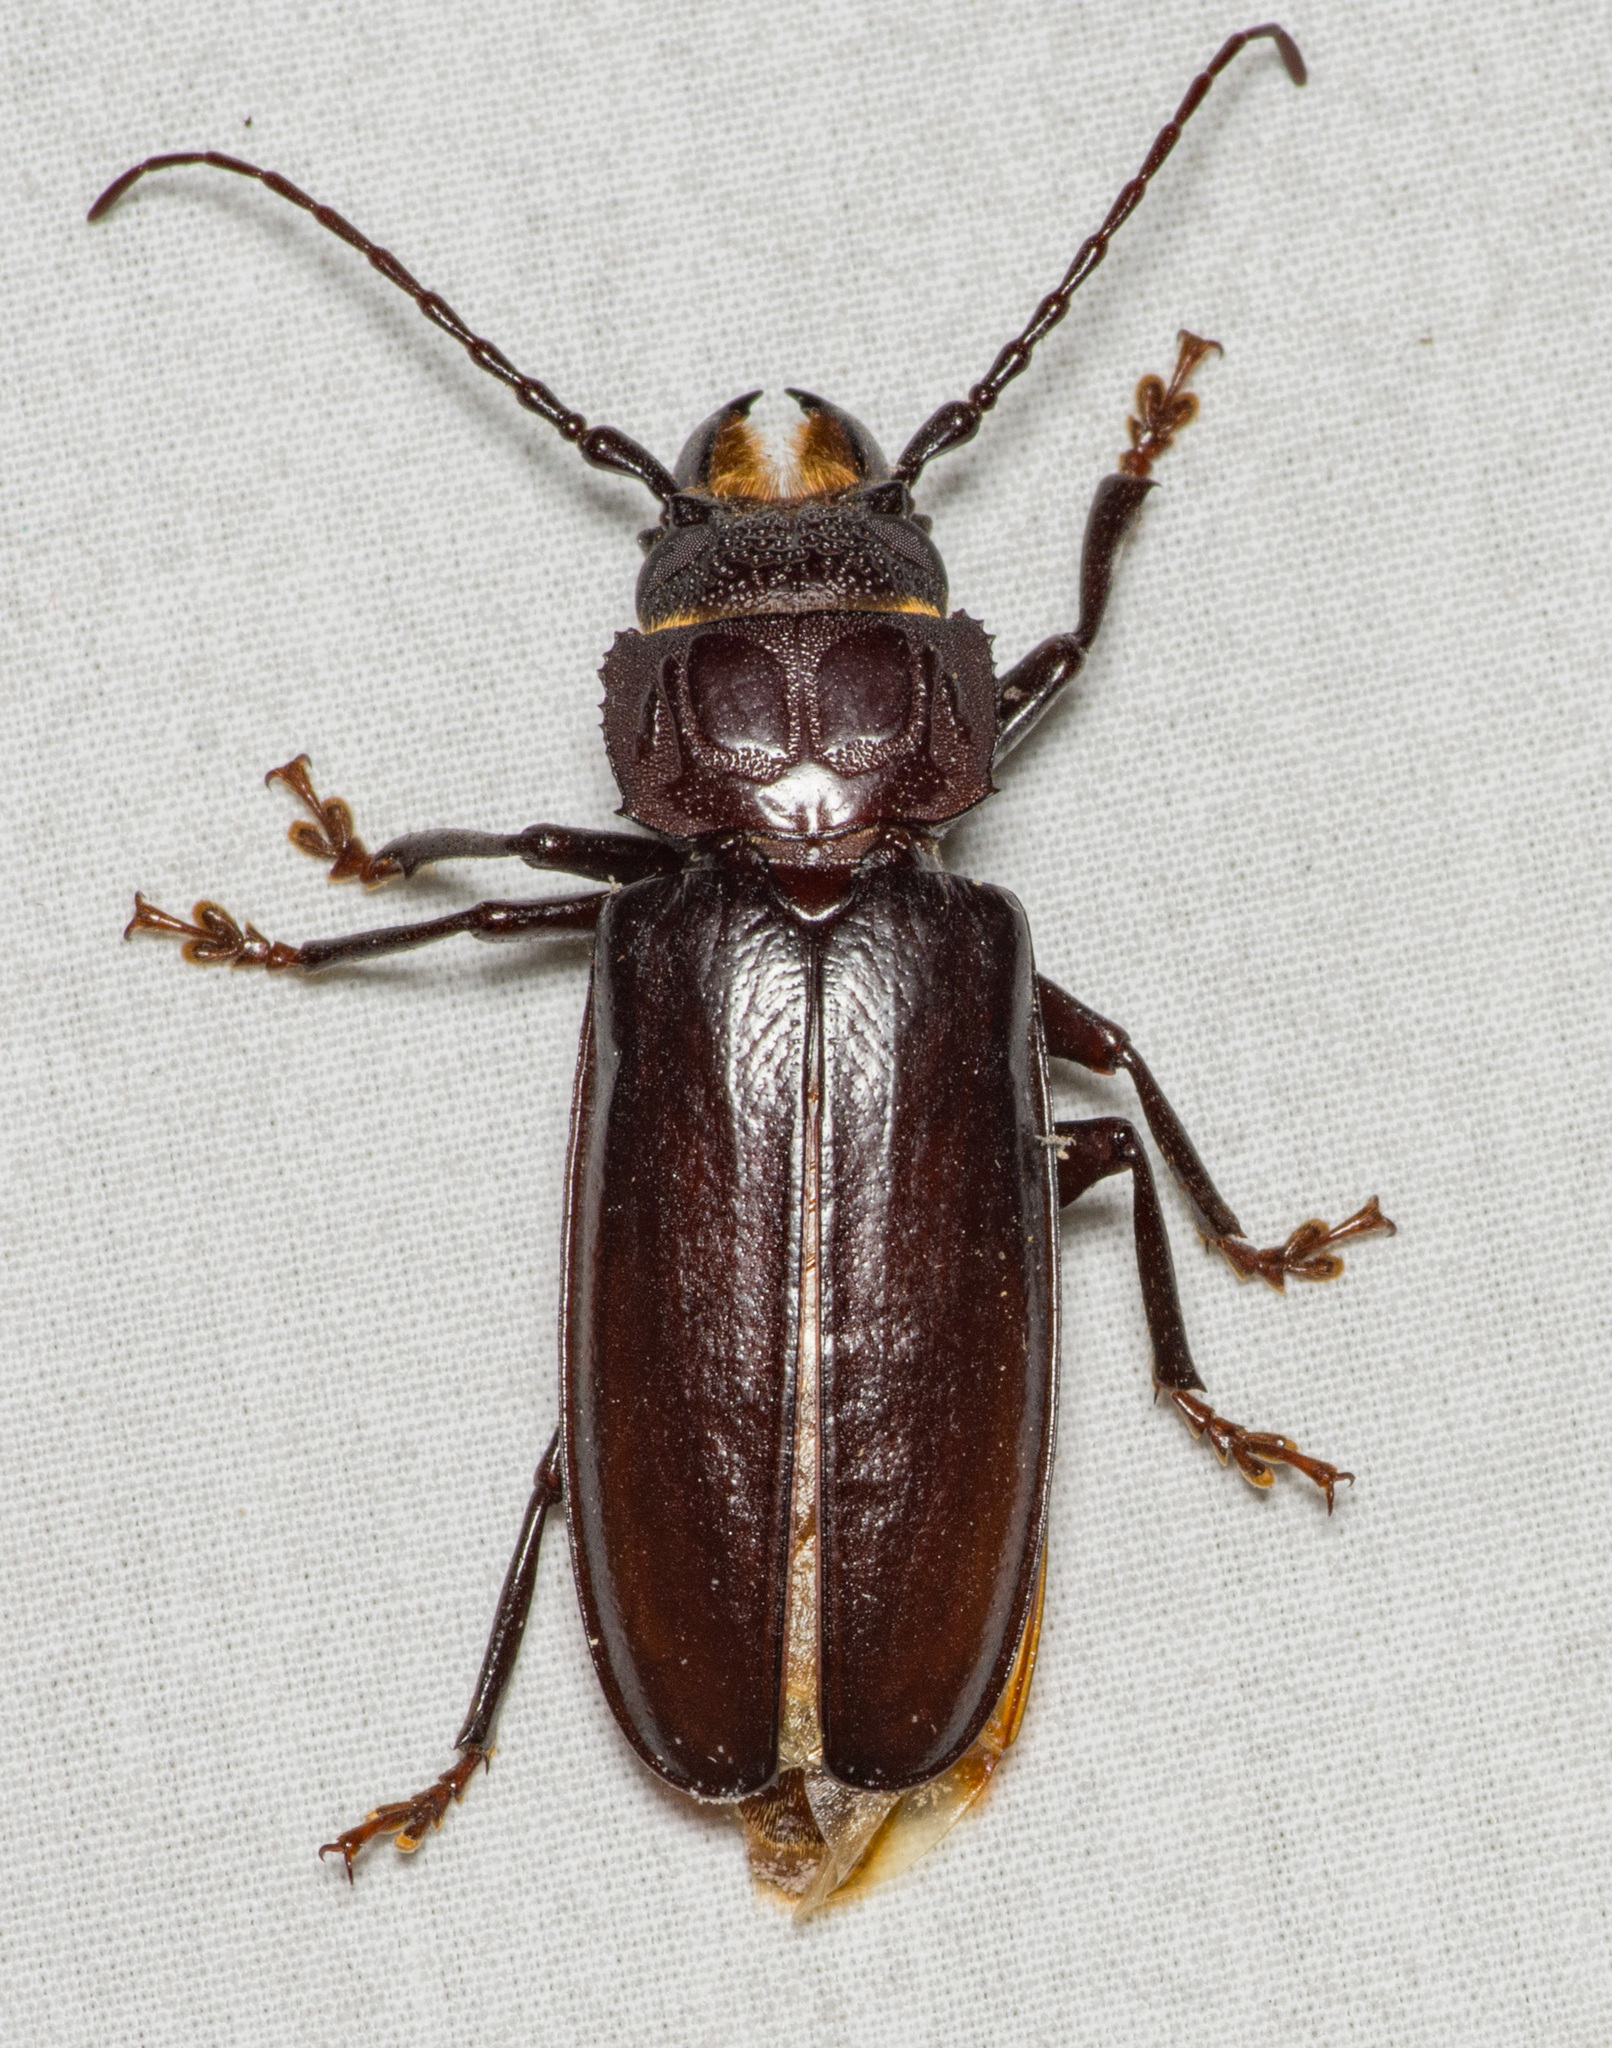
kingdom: Animalia
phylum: Arthropoda
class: Insecta
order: Coleoptera
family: Cerambycidae
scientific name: Cerambycidae
